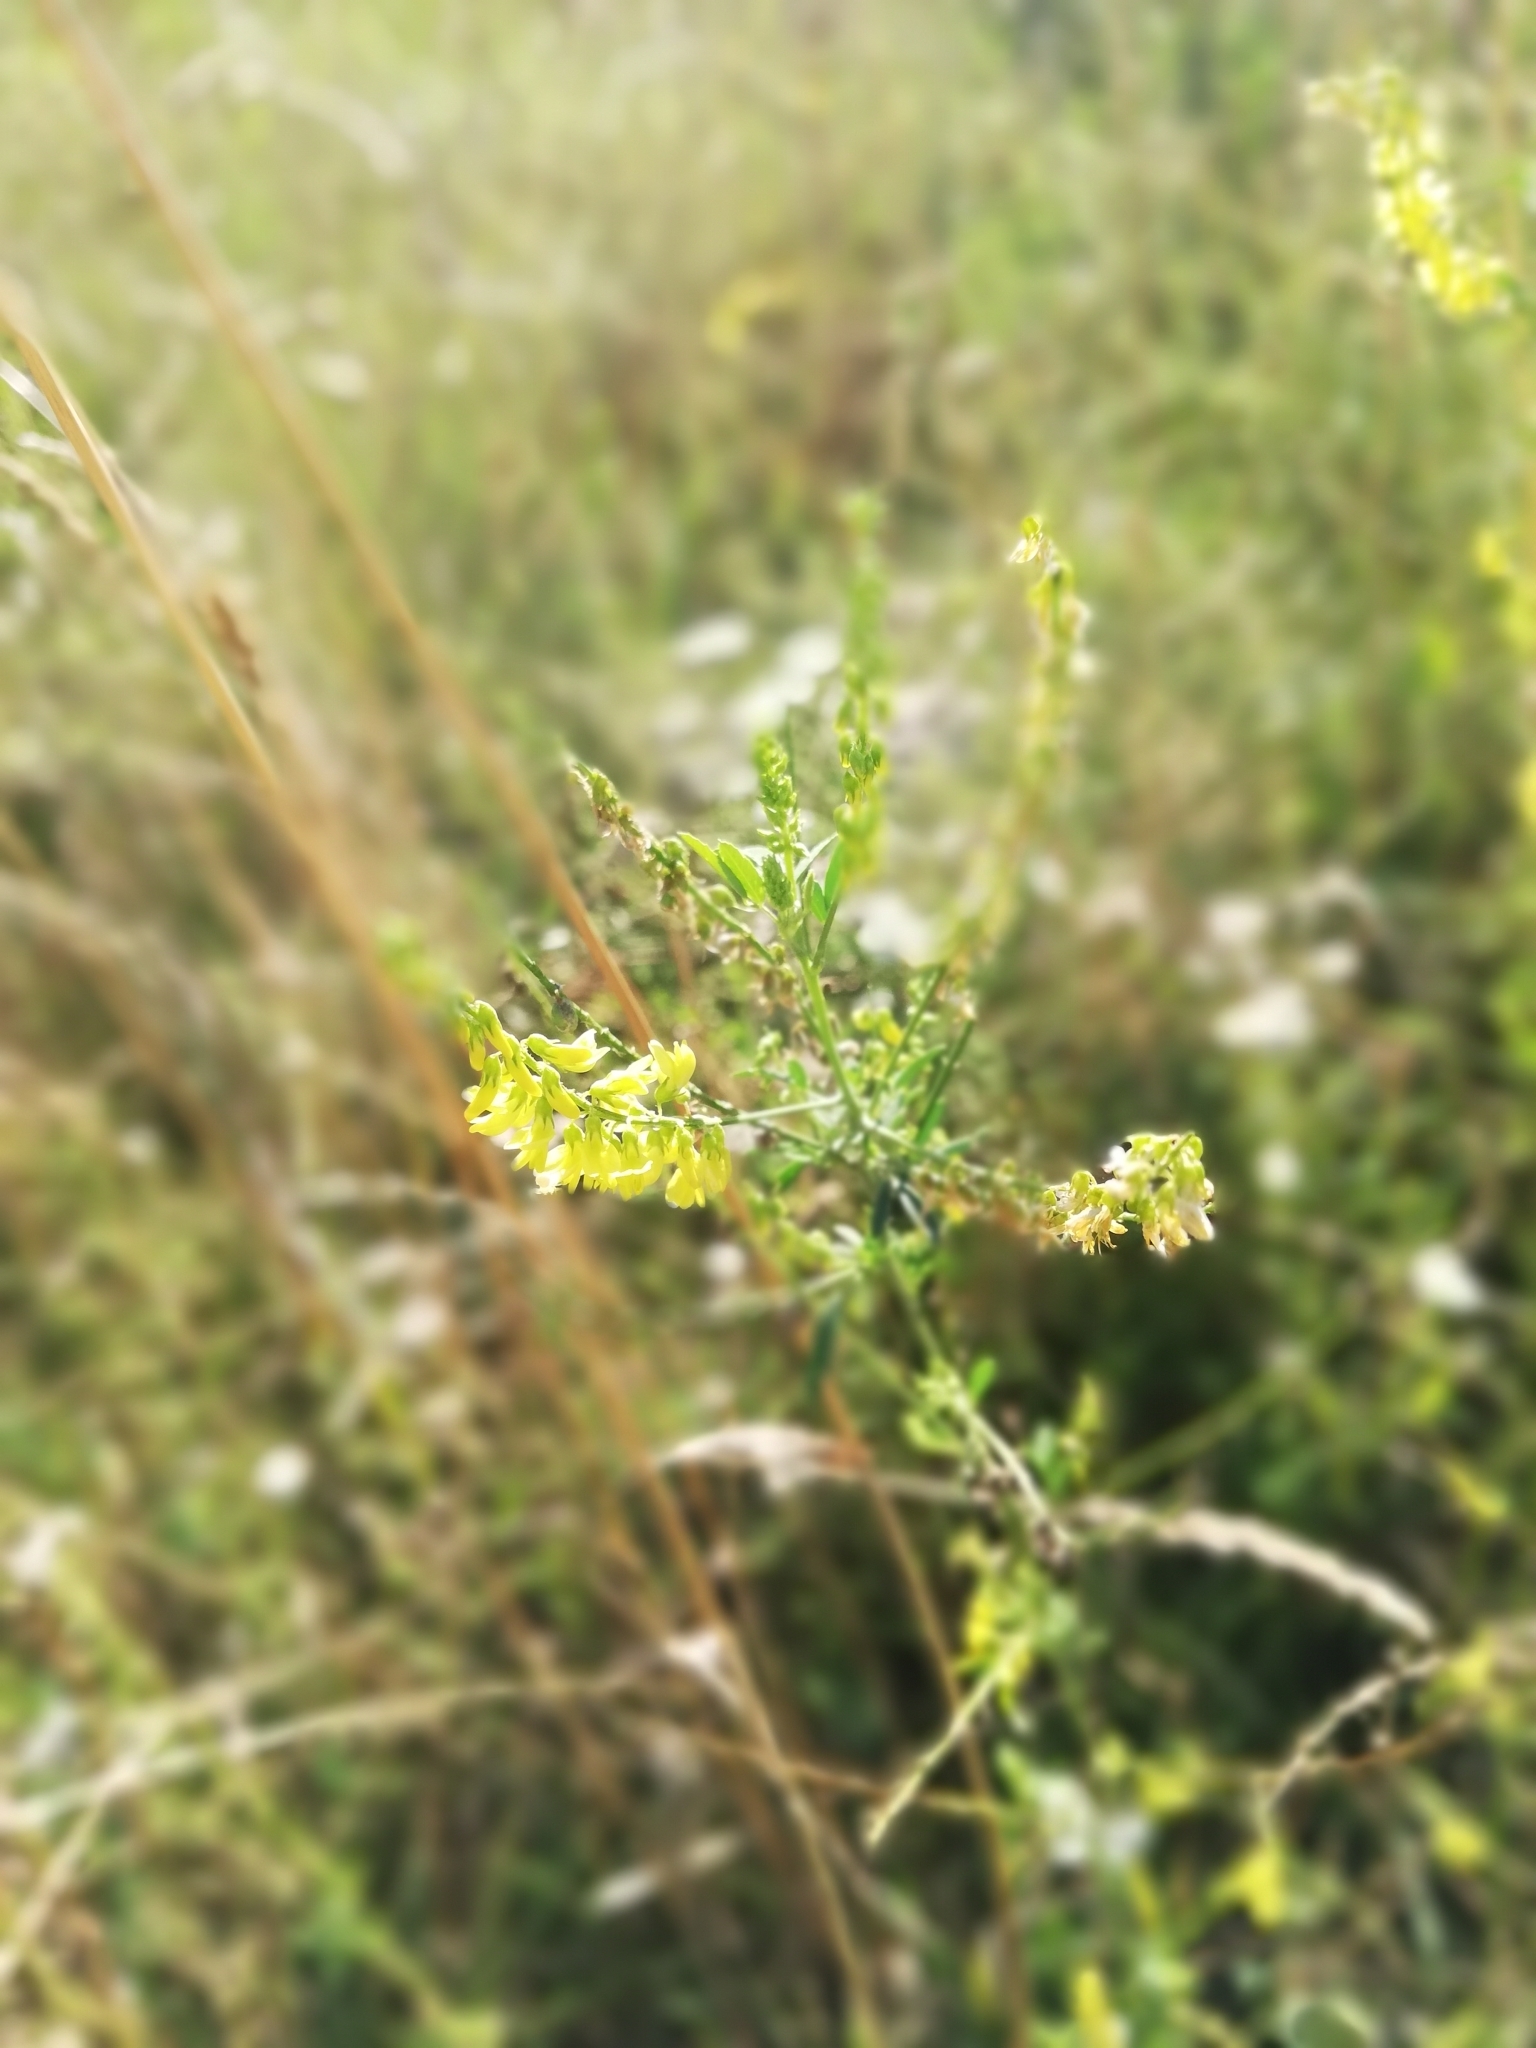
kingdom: Plantae
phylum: Tracheophyta
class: Magnoliopsida
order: Fabales
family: Fabaceae
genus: Melilotus
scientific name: Melilotus officinalis
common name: Sweetclover
